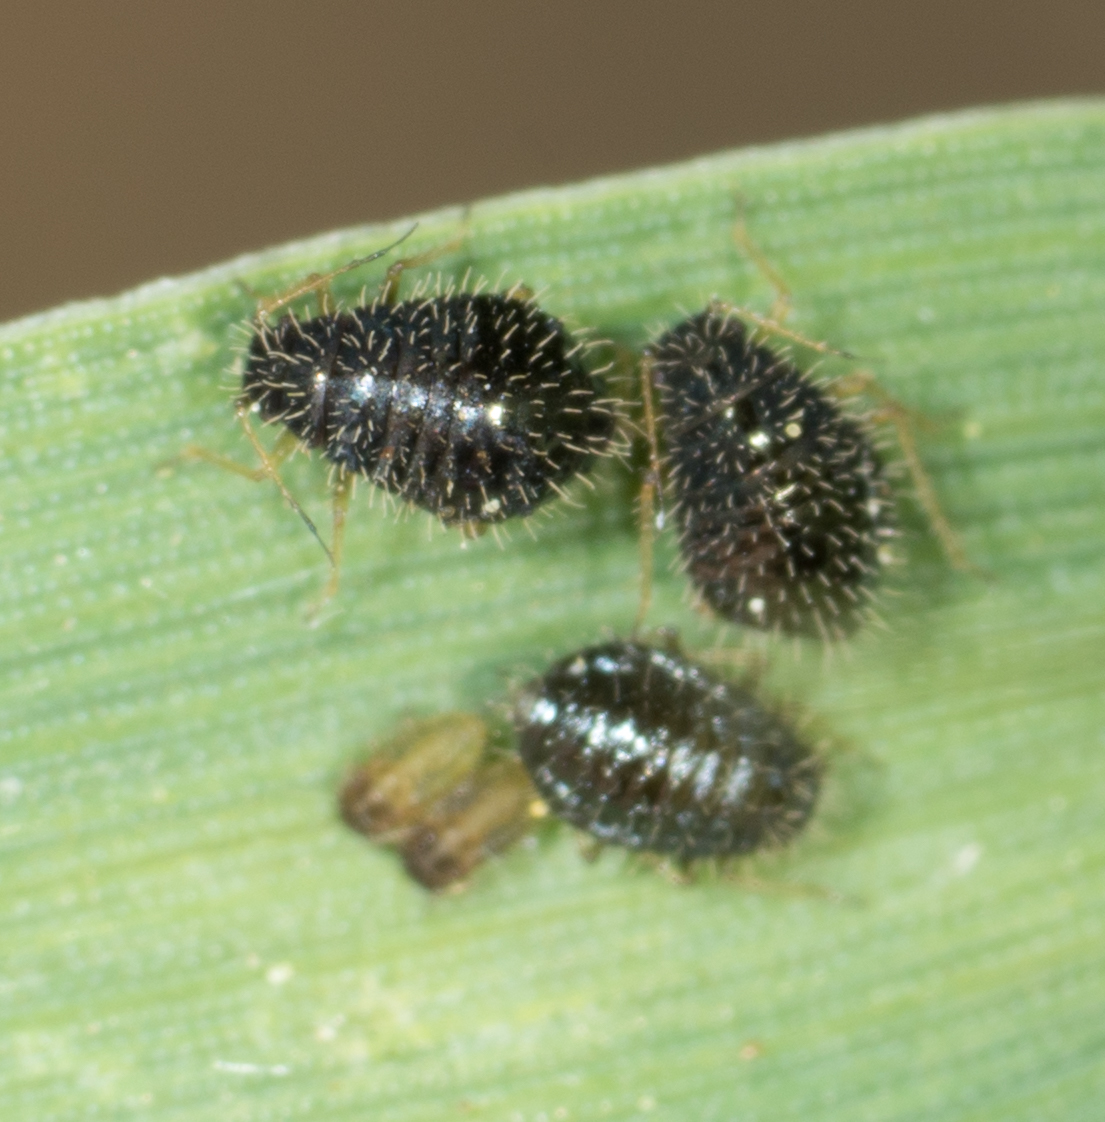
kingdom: Animalia
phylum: Arthropoda
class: Insecta
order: Hemiptera
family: Aphididae
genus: Sipha
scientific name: Sipha maydis
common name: Aphid
